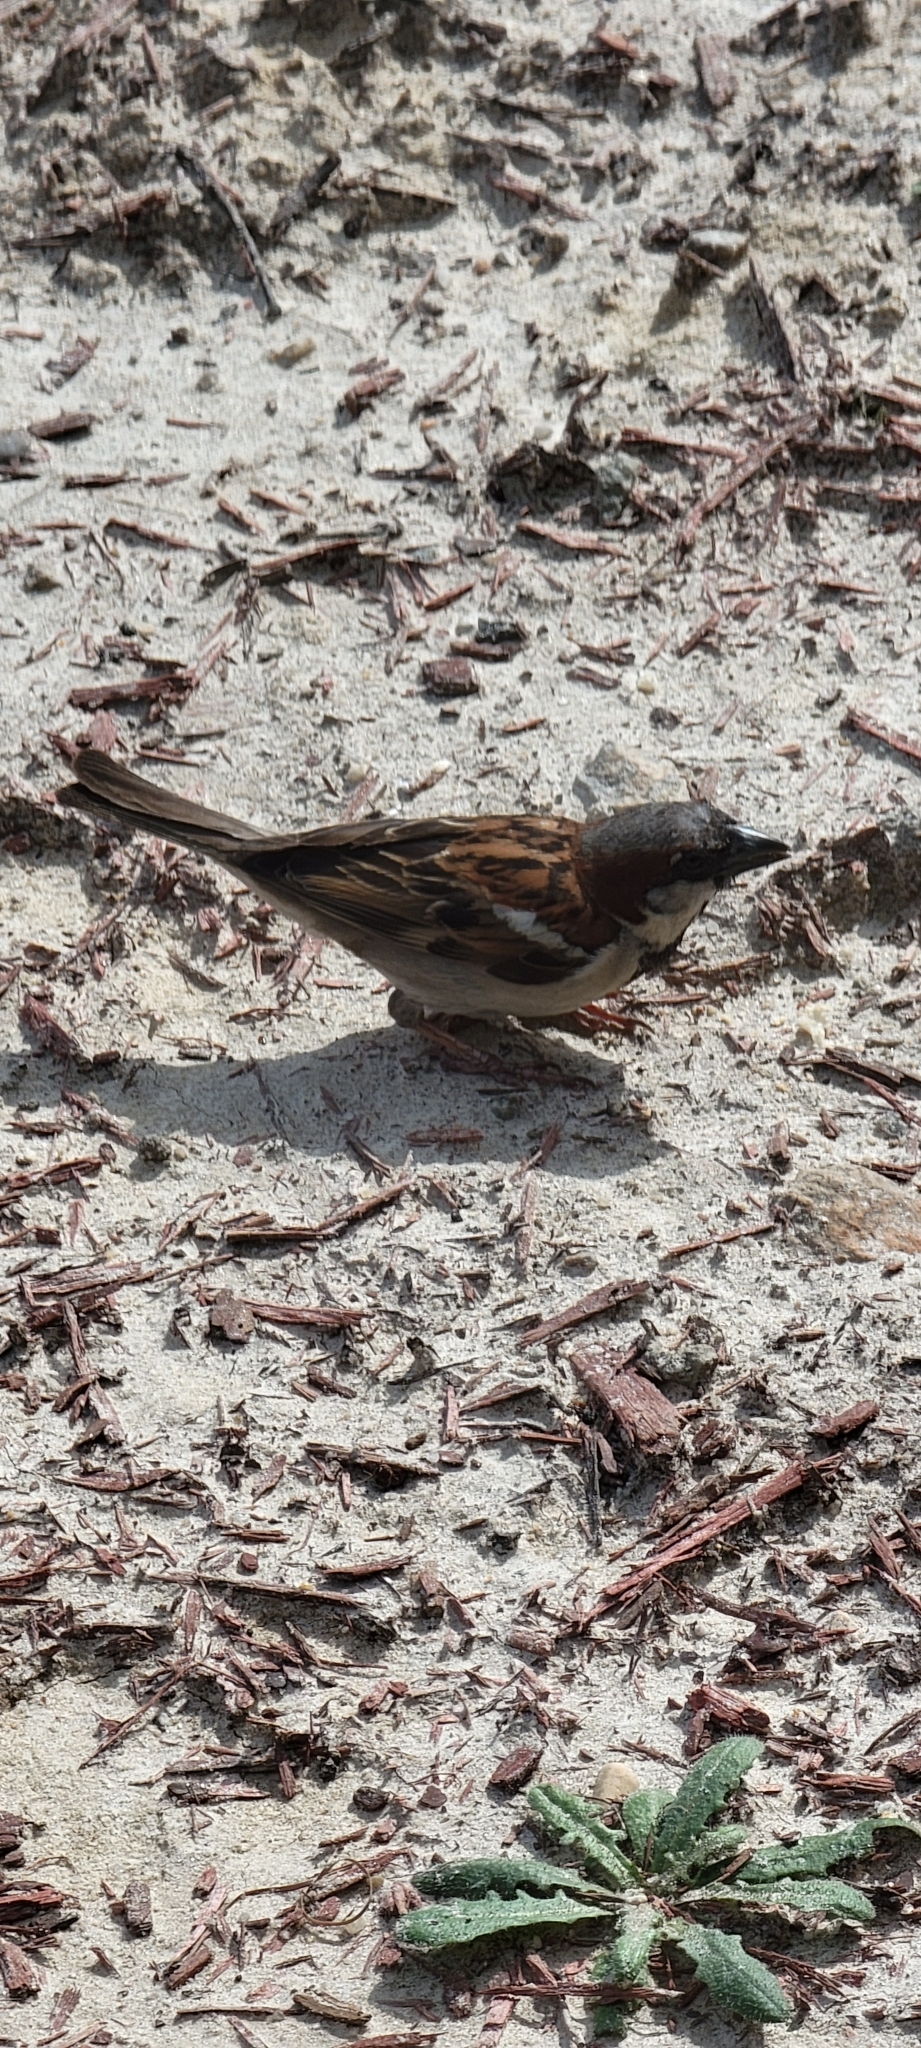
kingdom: Animalia
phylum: Chordata
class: Aves
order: Passeriformes
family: Passeridae
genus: Passer
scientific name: Passer domesticus
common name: House sparrow
